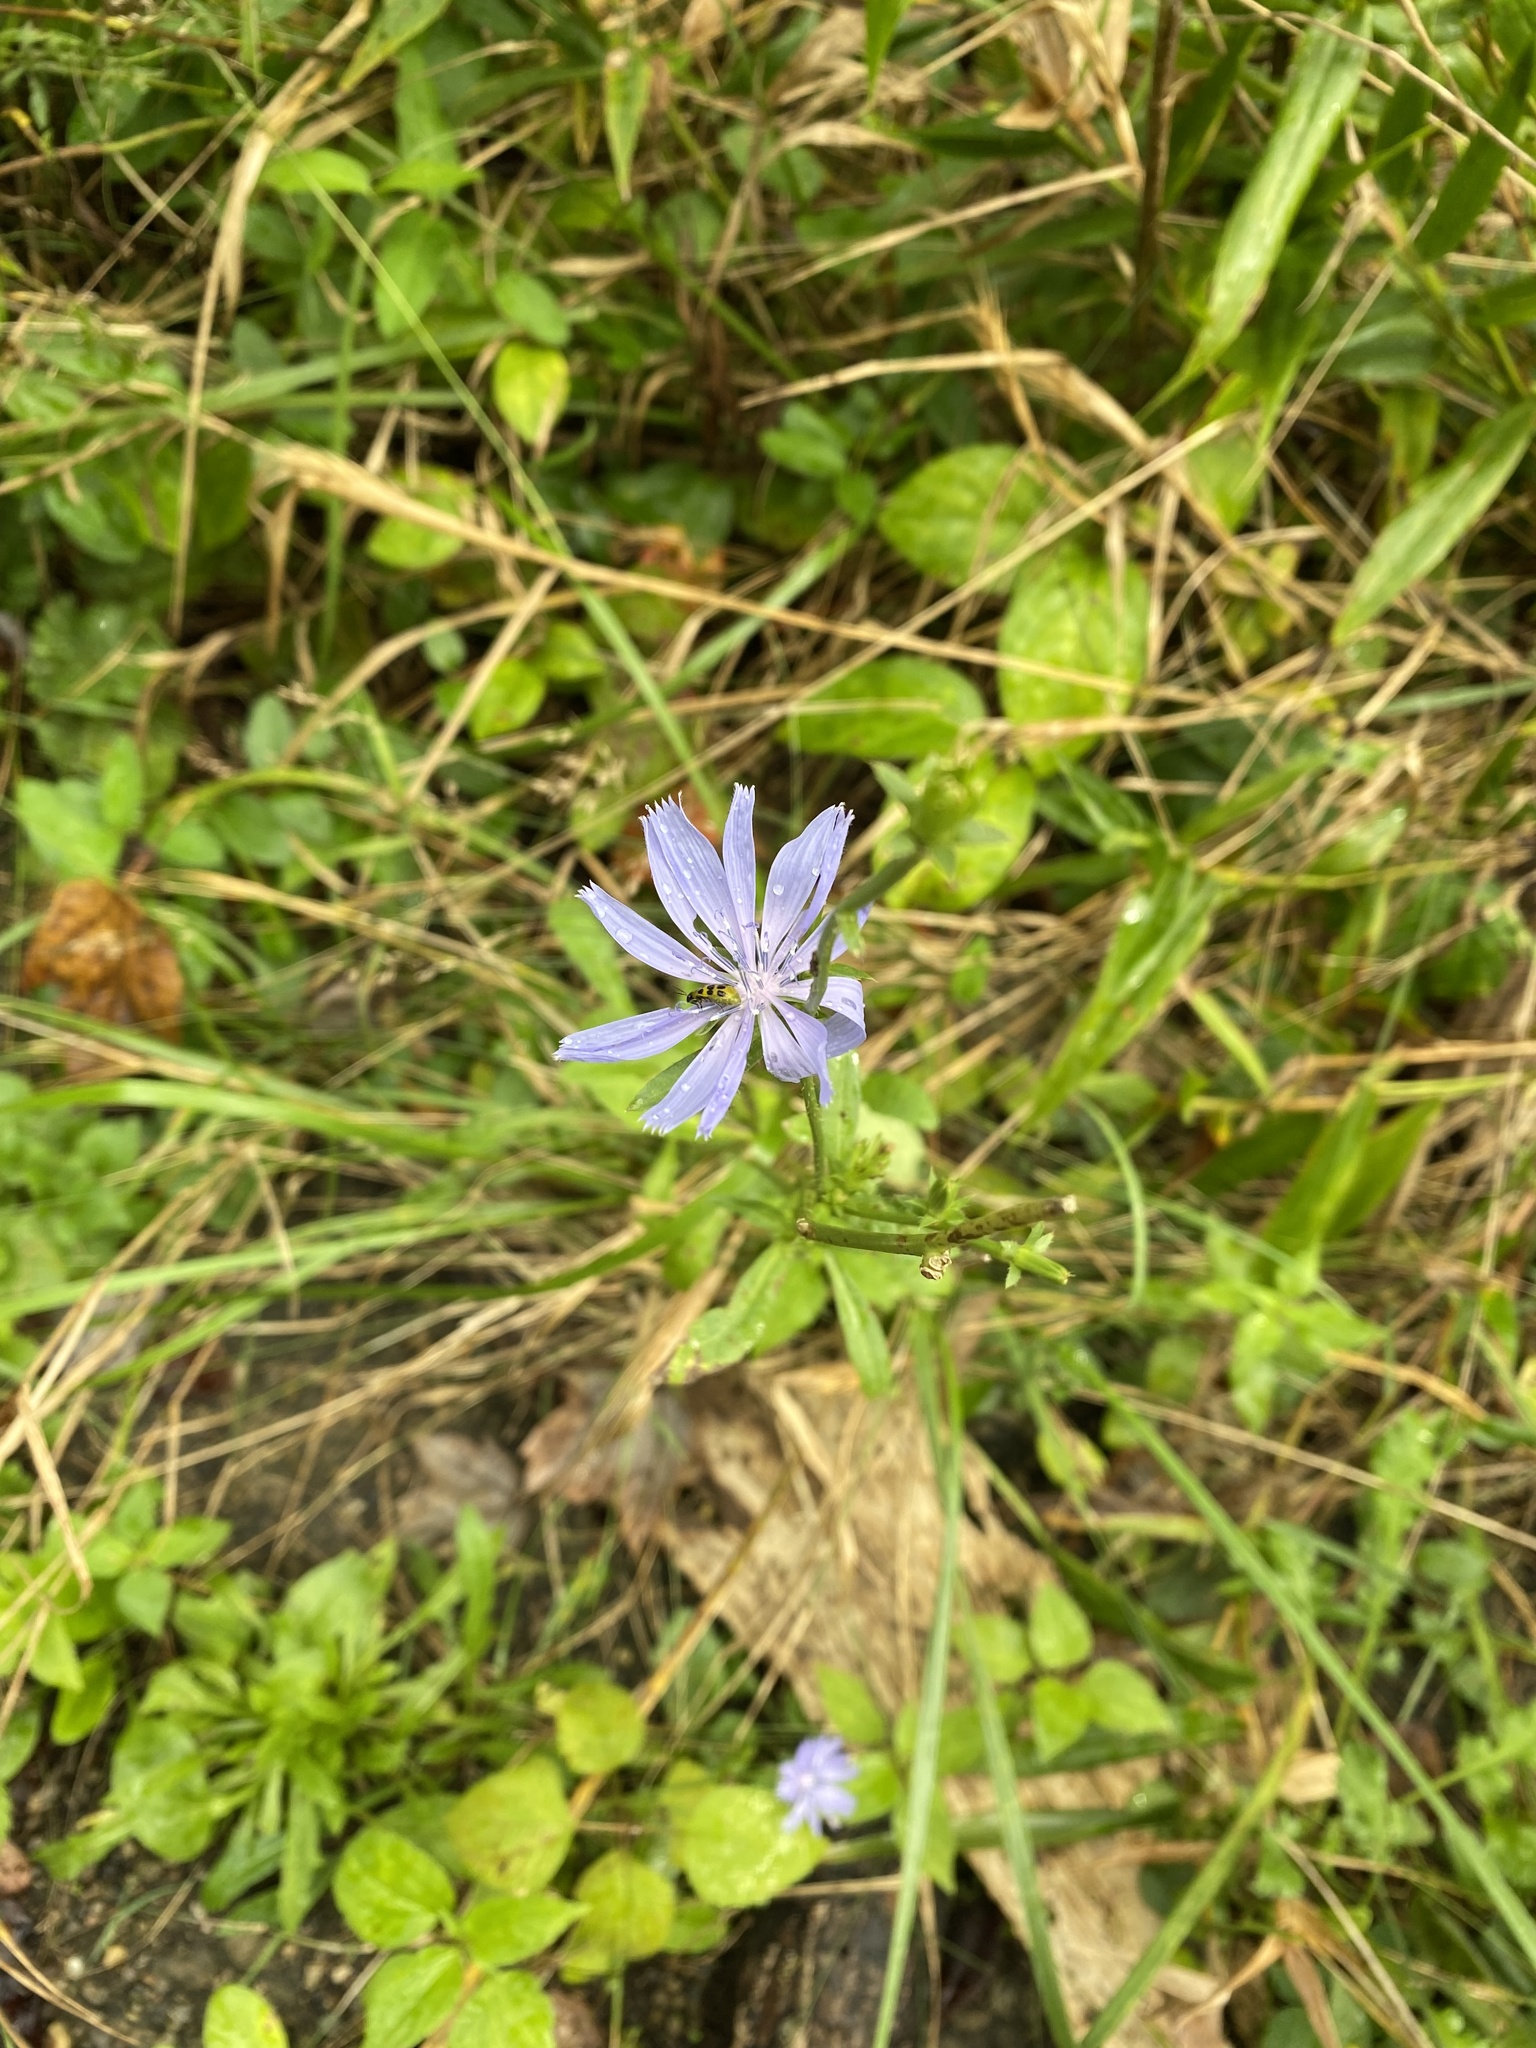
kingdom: Plantae
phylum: Tracheophyta
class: Magnoliopsida
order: Asterales
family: Asteraceae
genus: Cichorium
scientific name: Cichorium intybus
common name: Chicory
